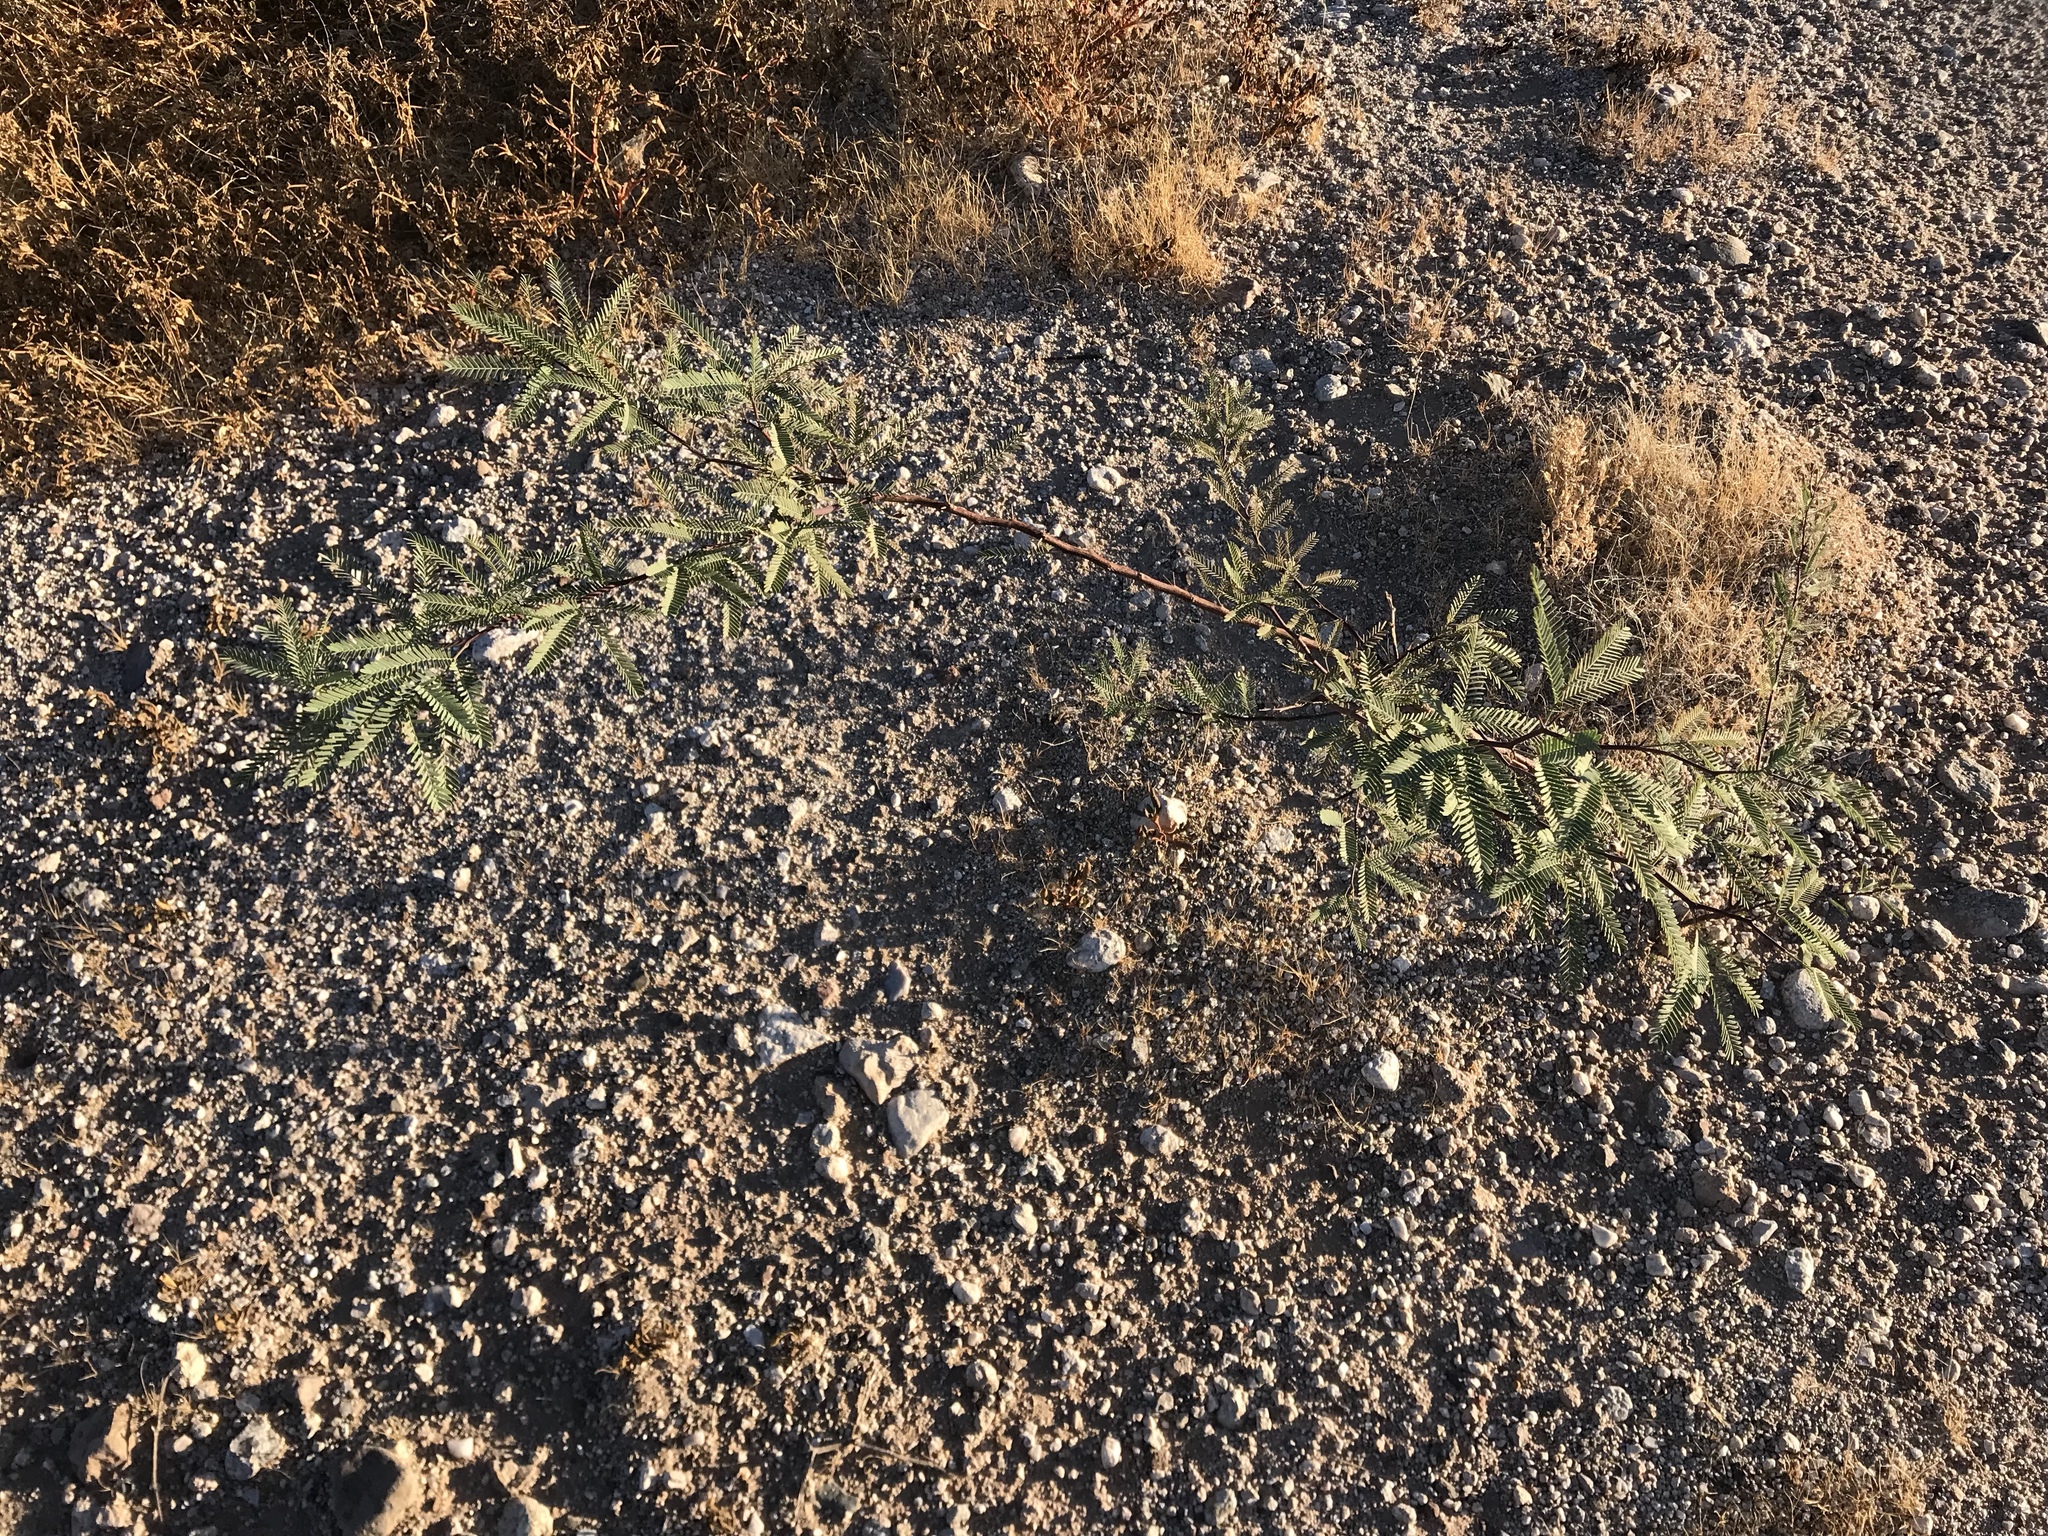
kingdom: Plantae
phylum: Tracheophyta
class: Magnoliopsida
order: Fabales
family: Fabaceae
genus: Prosopis
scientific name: Prosopis velutina
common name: Velvet mesquite
